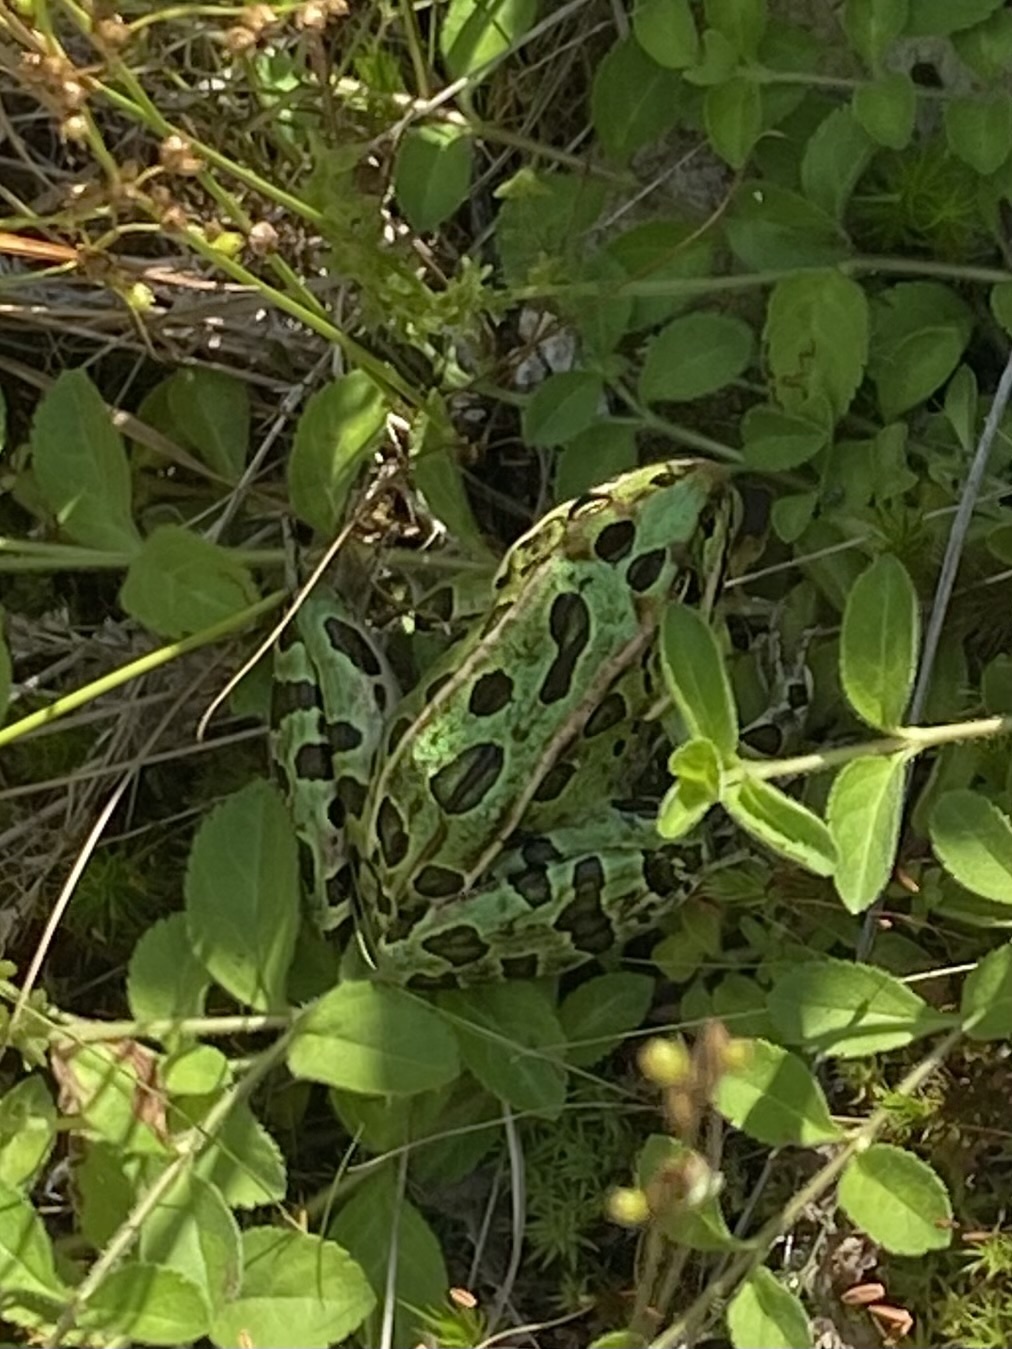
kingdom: Animalia
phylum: Chordata
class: Amphibia
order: Anura
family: Ranidae
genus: Lithobates
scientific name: Lithobates pipiens
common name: Northern leopard frog
